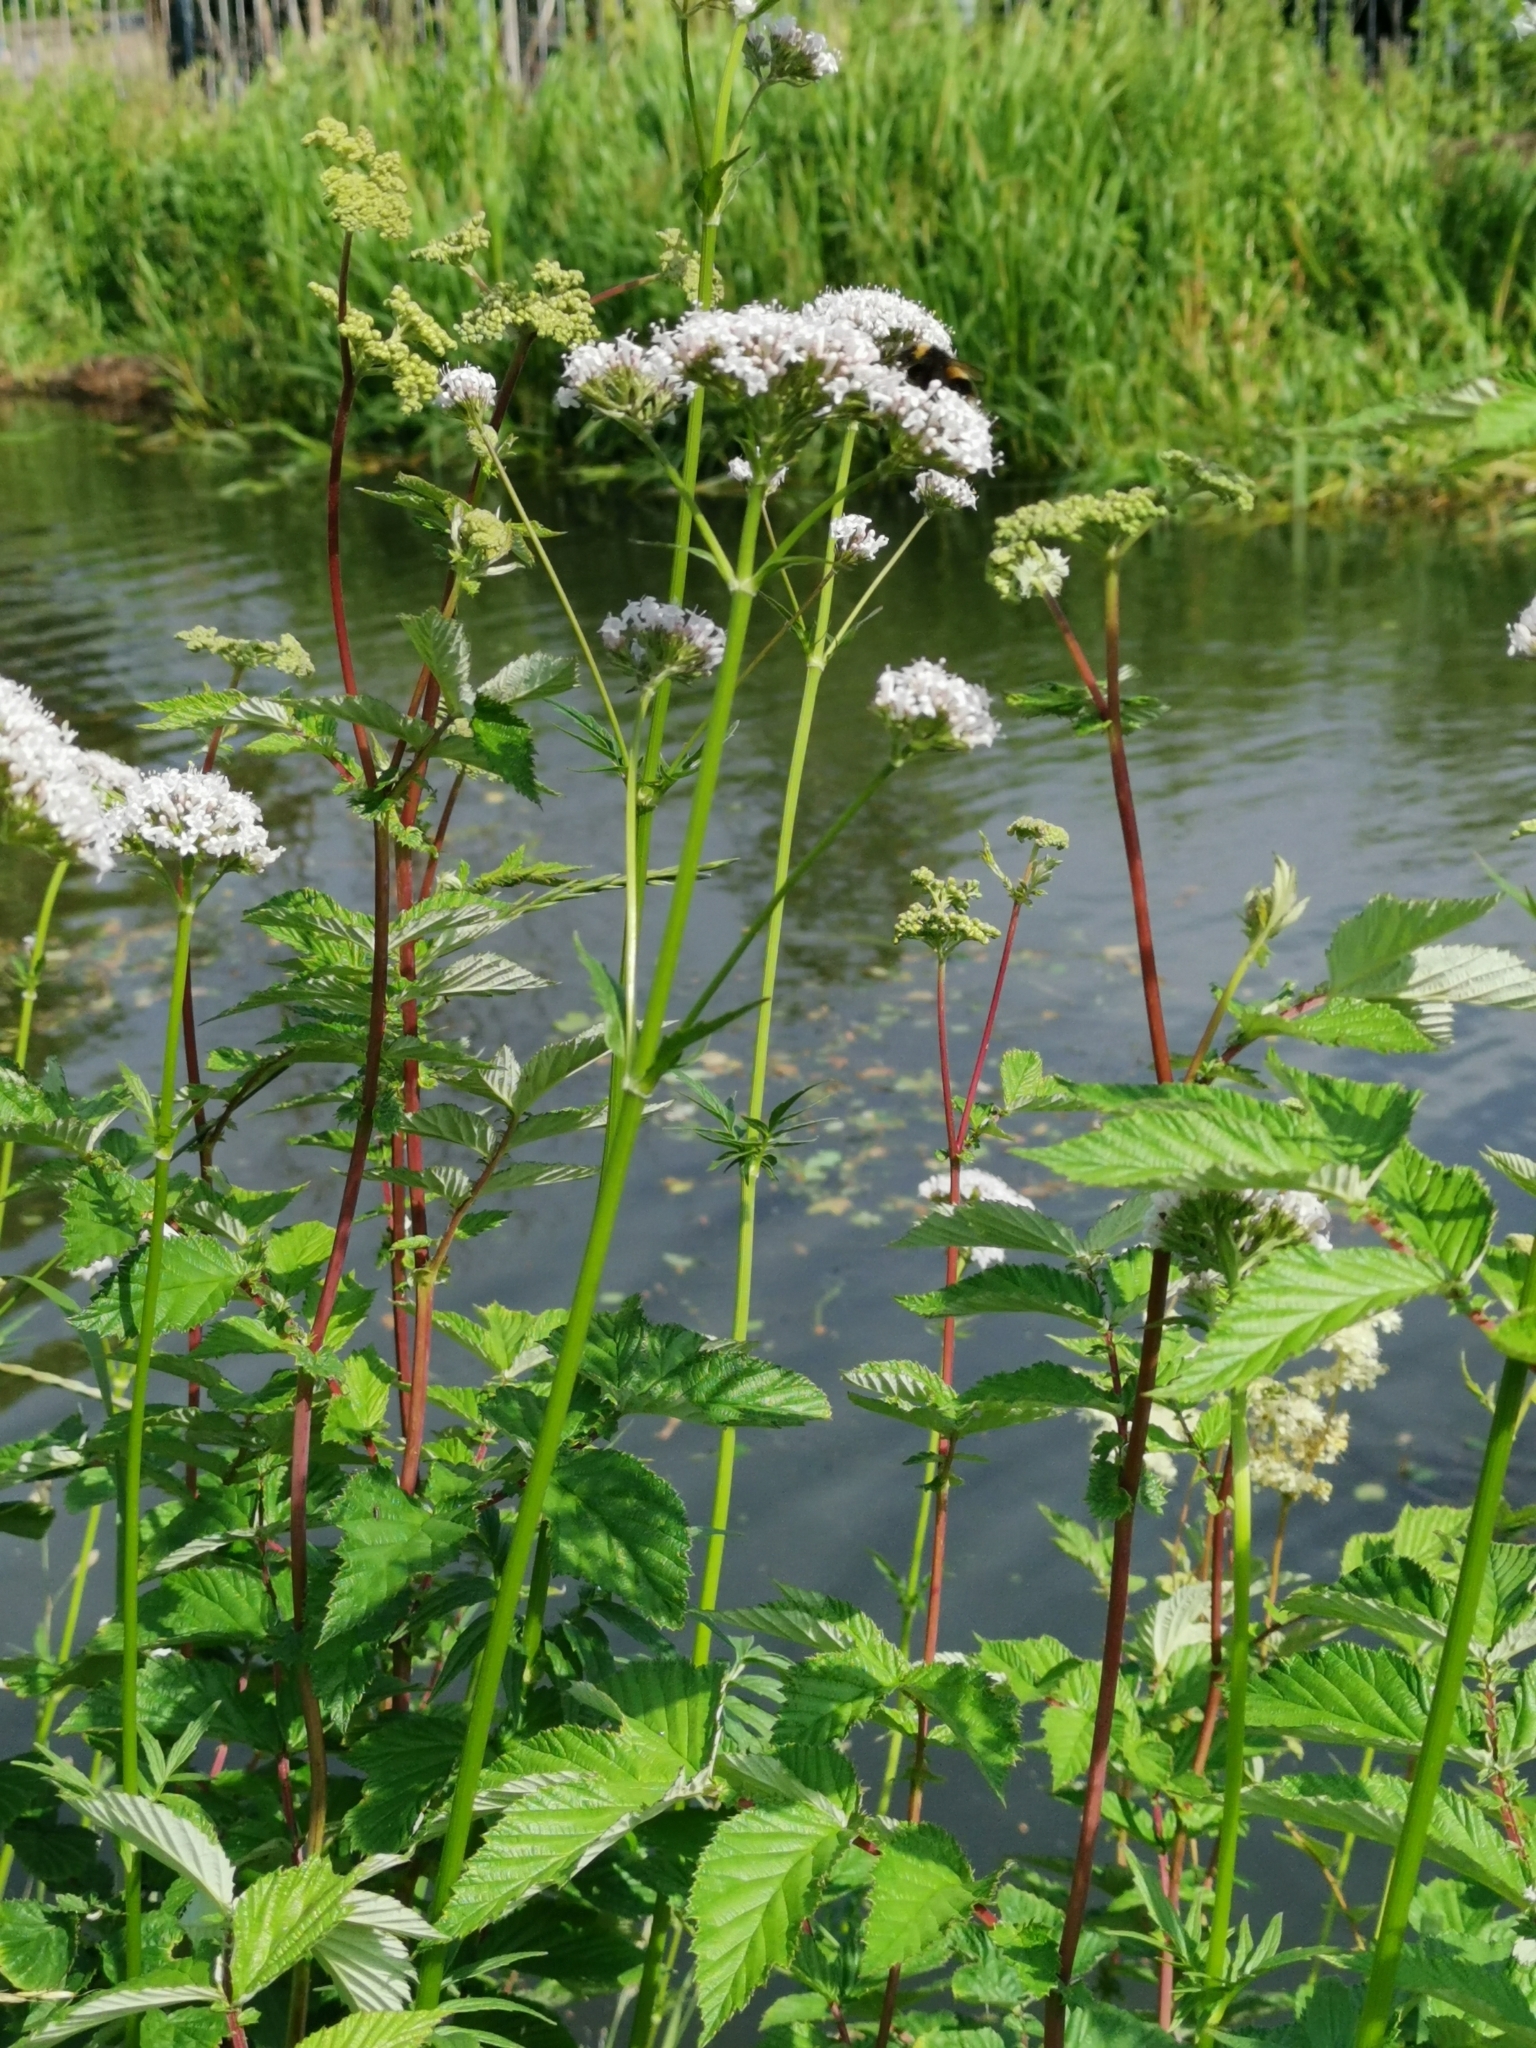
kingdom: Plantae
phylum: Tracheophyta
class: Magnoliopsida
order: Dipsacales
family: Caprifoliaceae
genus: Valeriana
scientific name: Valeriana officinalis
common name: Common valerian
